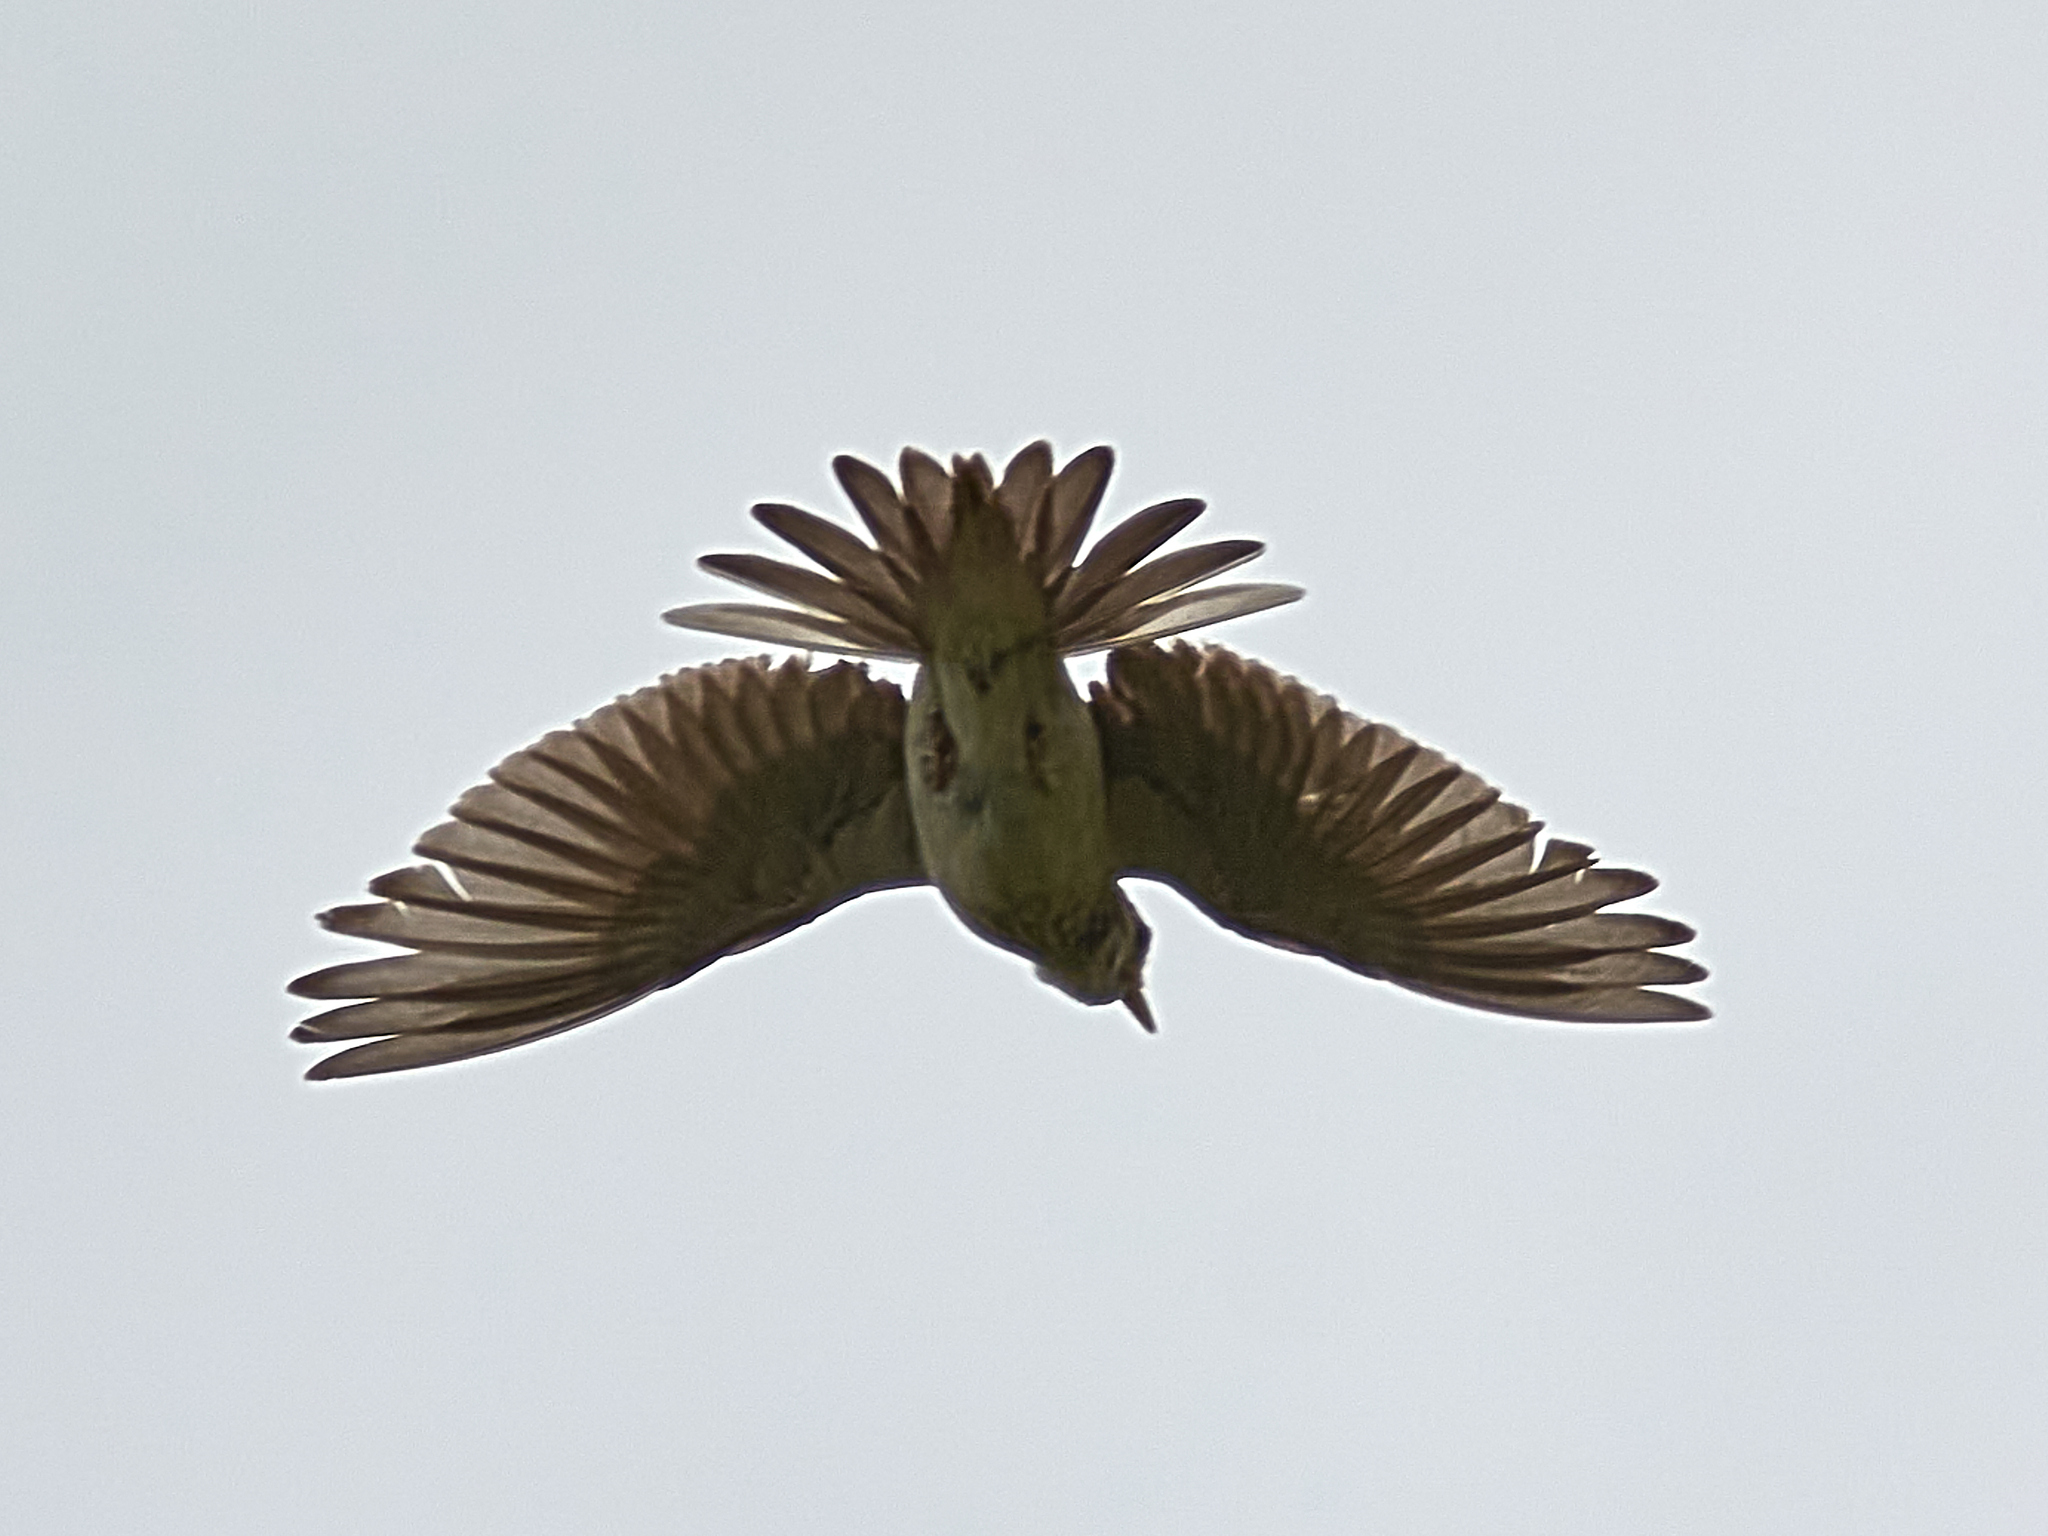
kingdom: Animalia
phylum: Chordata
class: Aves
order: Passeriformes
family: Alaudidae
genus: Alauda
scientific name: Alauda arvensis
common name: Eurasian skylark
